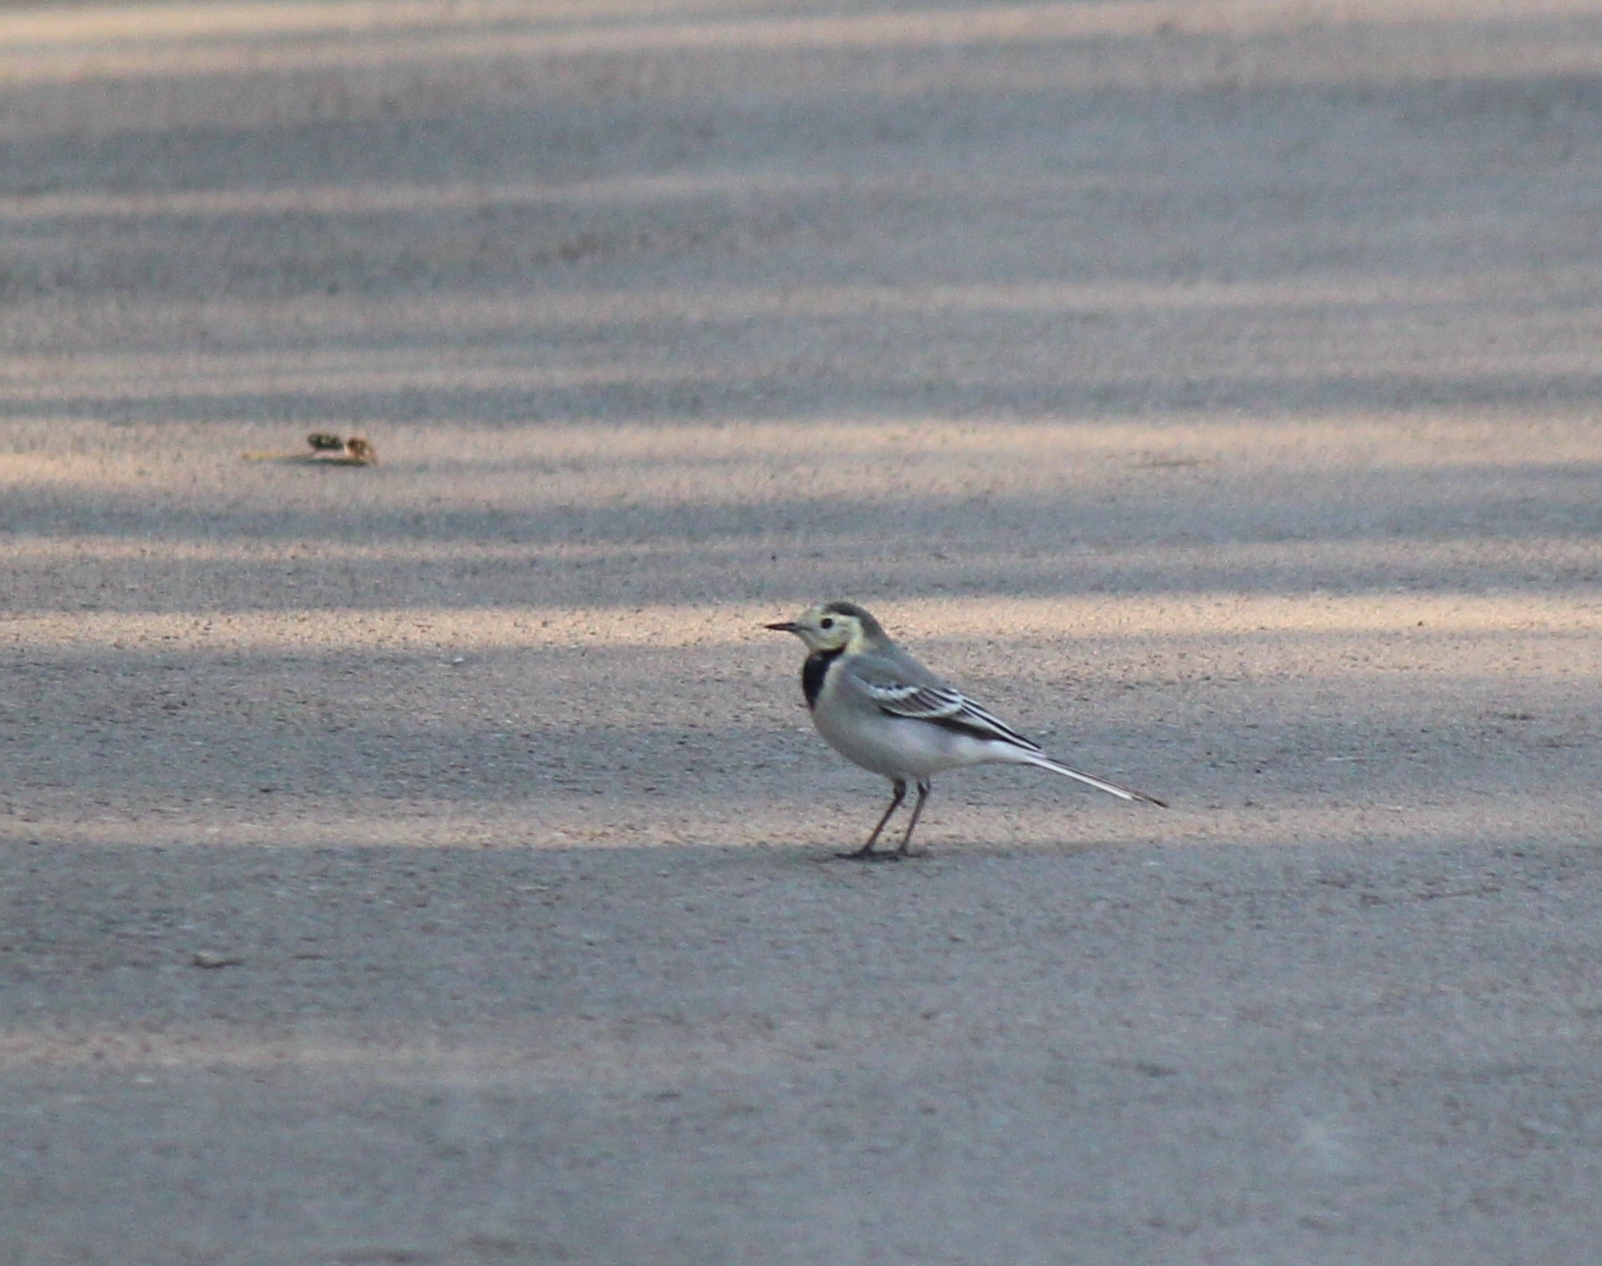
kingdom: Animalia
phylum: Chordata
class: Aves
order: Passeriformes
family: Motacillidae
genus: Motacilla
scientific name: Motacilla alba
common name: White wagtail
